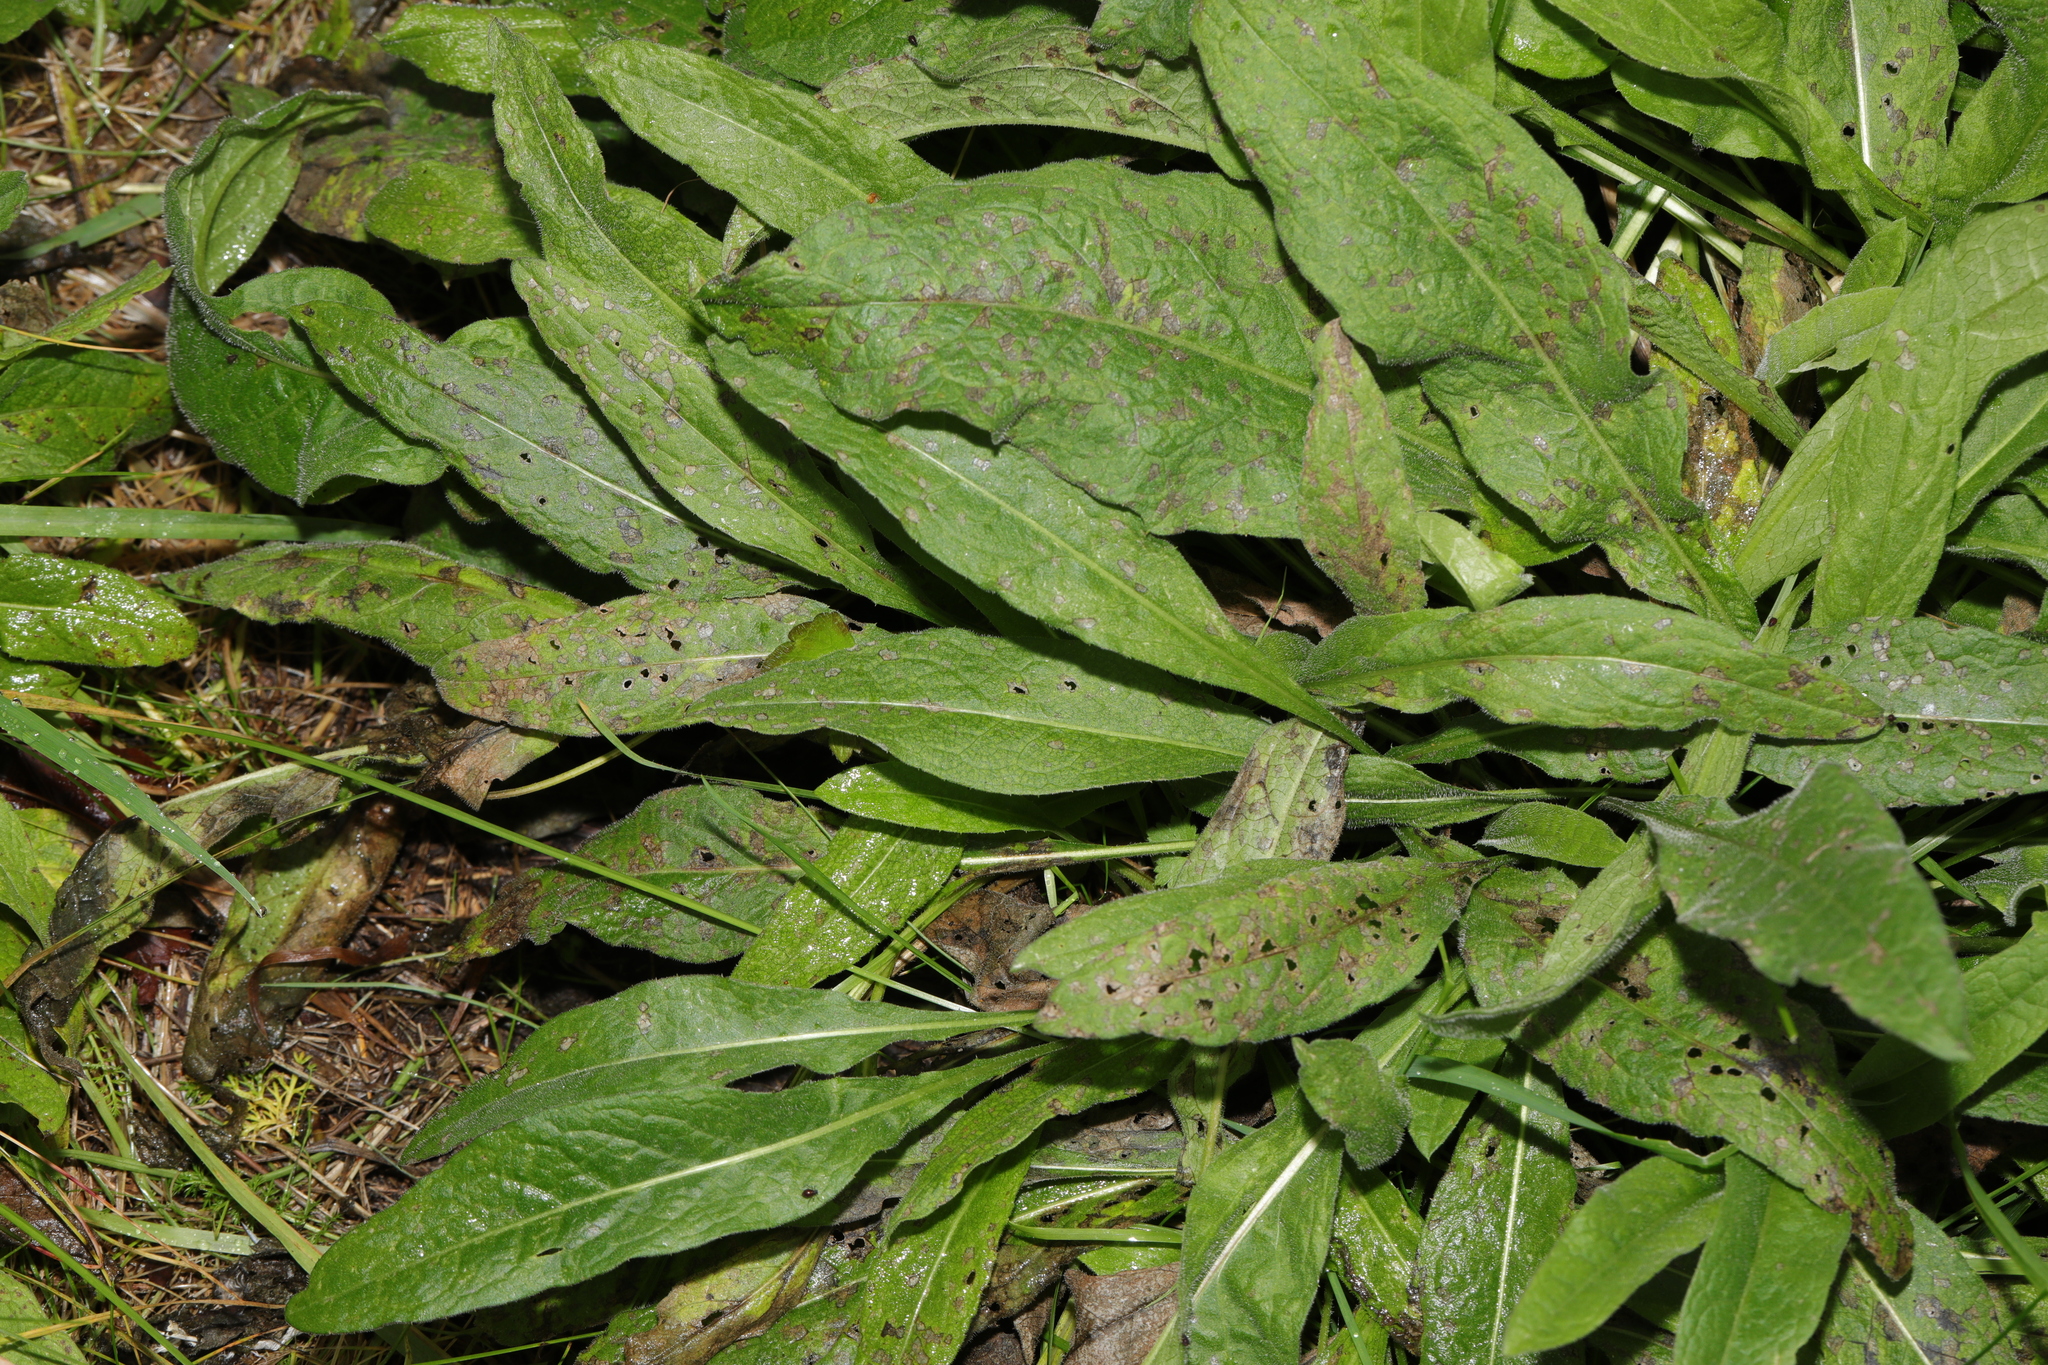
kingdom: Plantae
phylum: Tracheophyta
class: Magnoliopsida
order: Asterales
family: Asteraceae
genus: Centaurea
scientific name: Centaurea nigra
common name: Lesser knapweed
